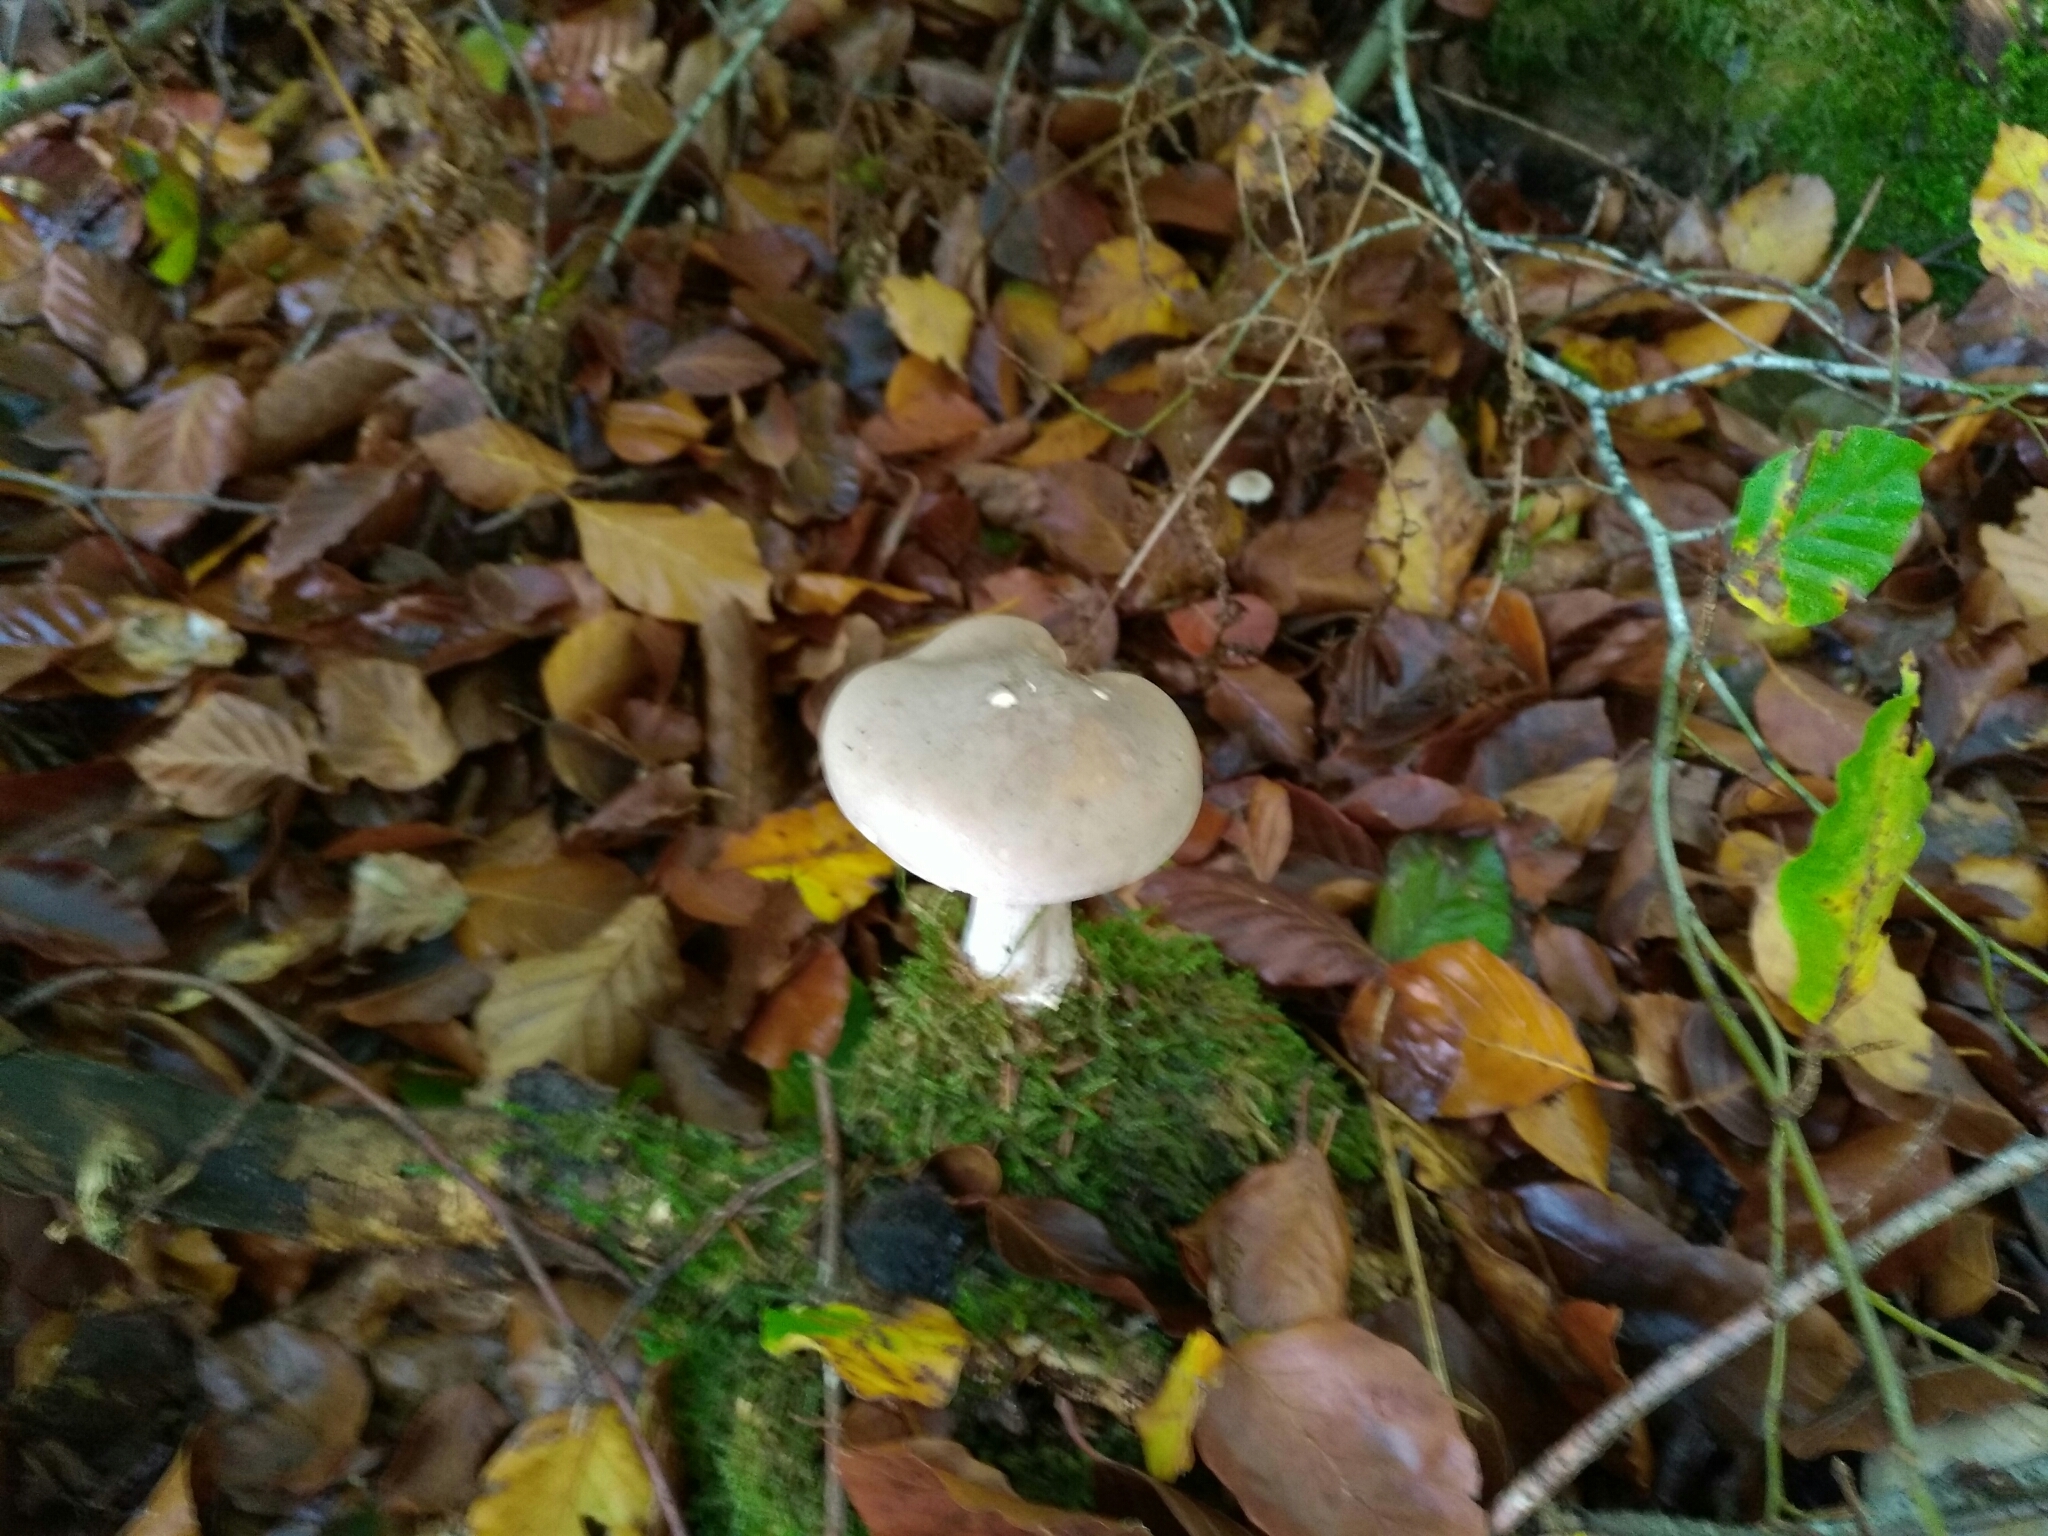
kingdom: Fungi
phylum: Basidiomycota
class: Agaricomycetes
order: Agaricales
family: Tricholomataceae
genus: Clitocybe
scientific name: Clitocybe nebularis
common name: Clouded agaric
